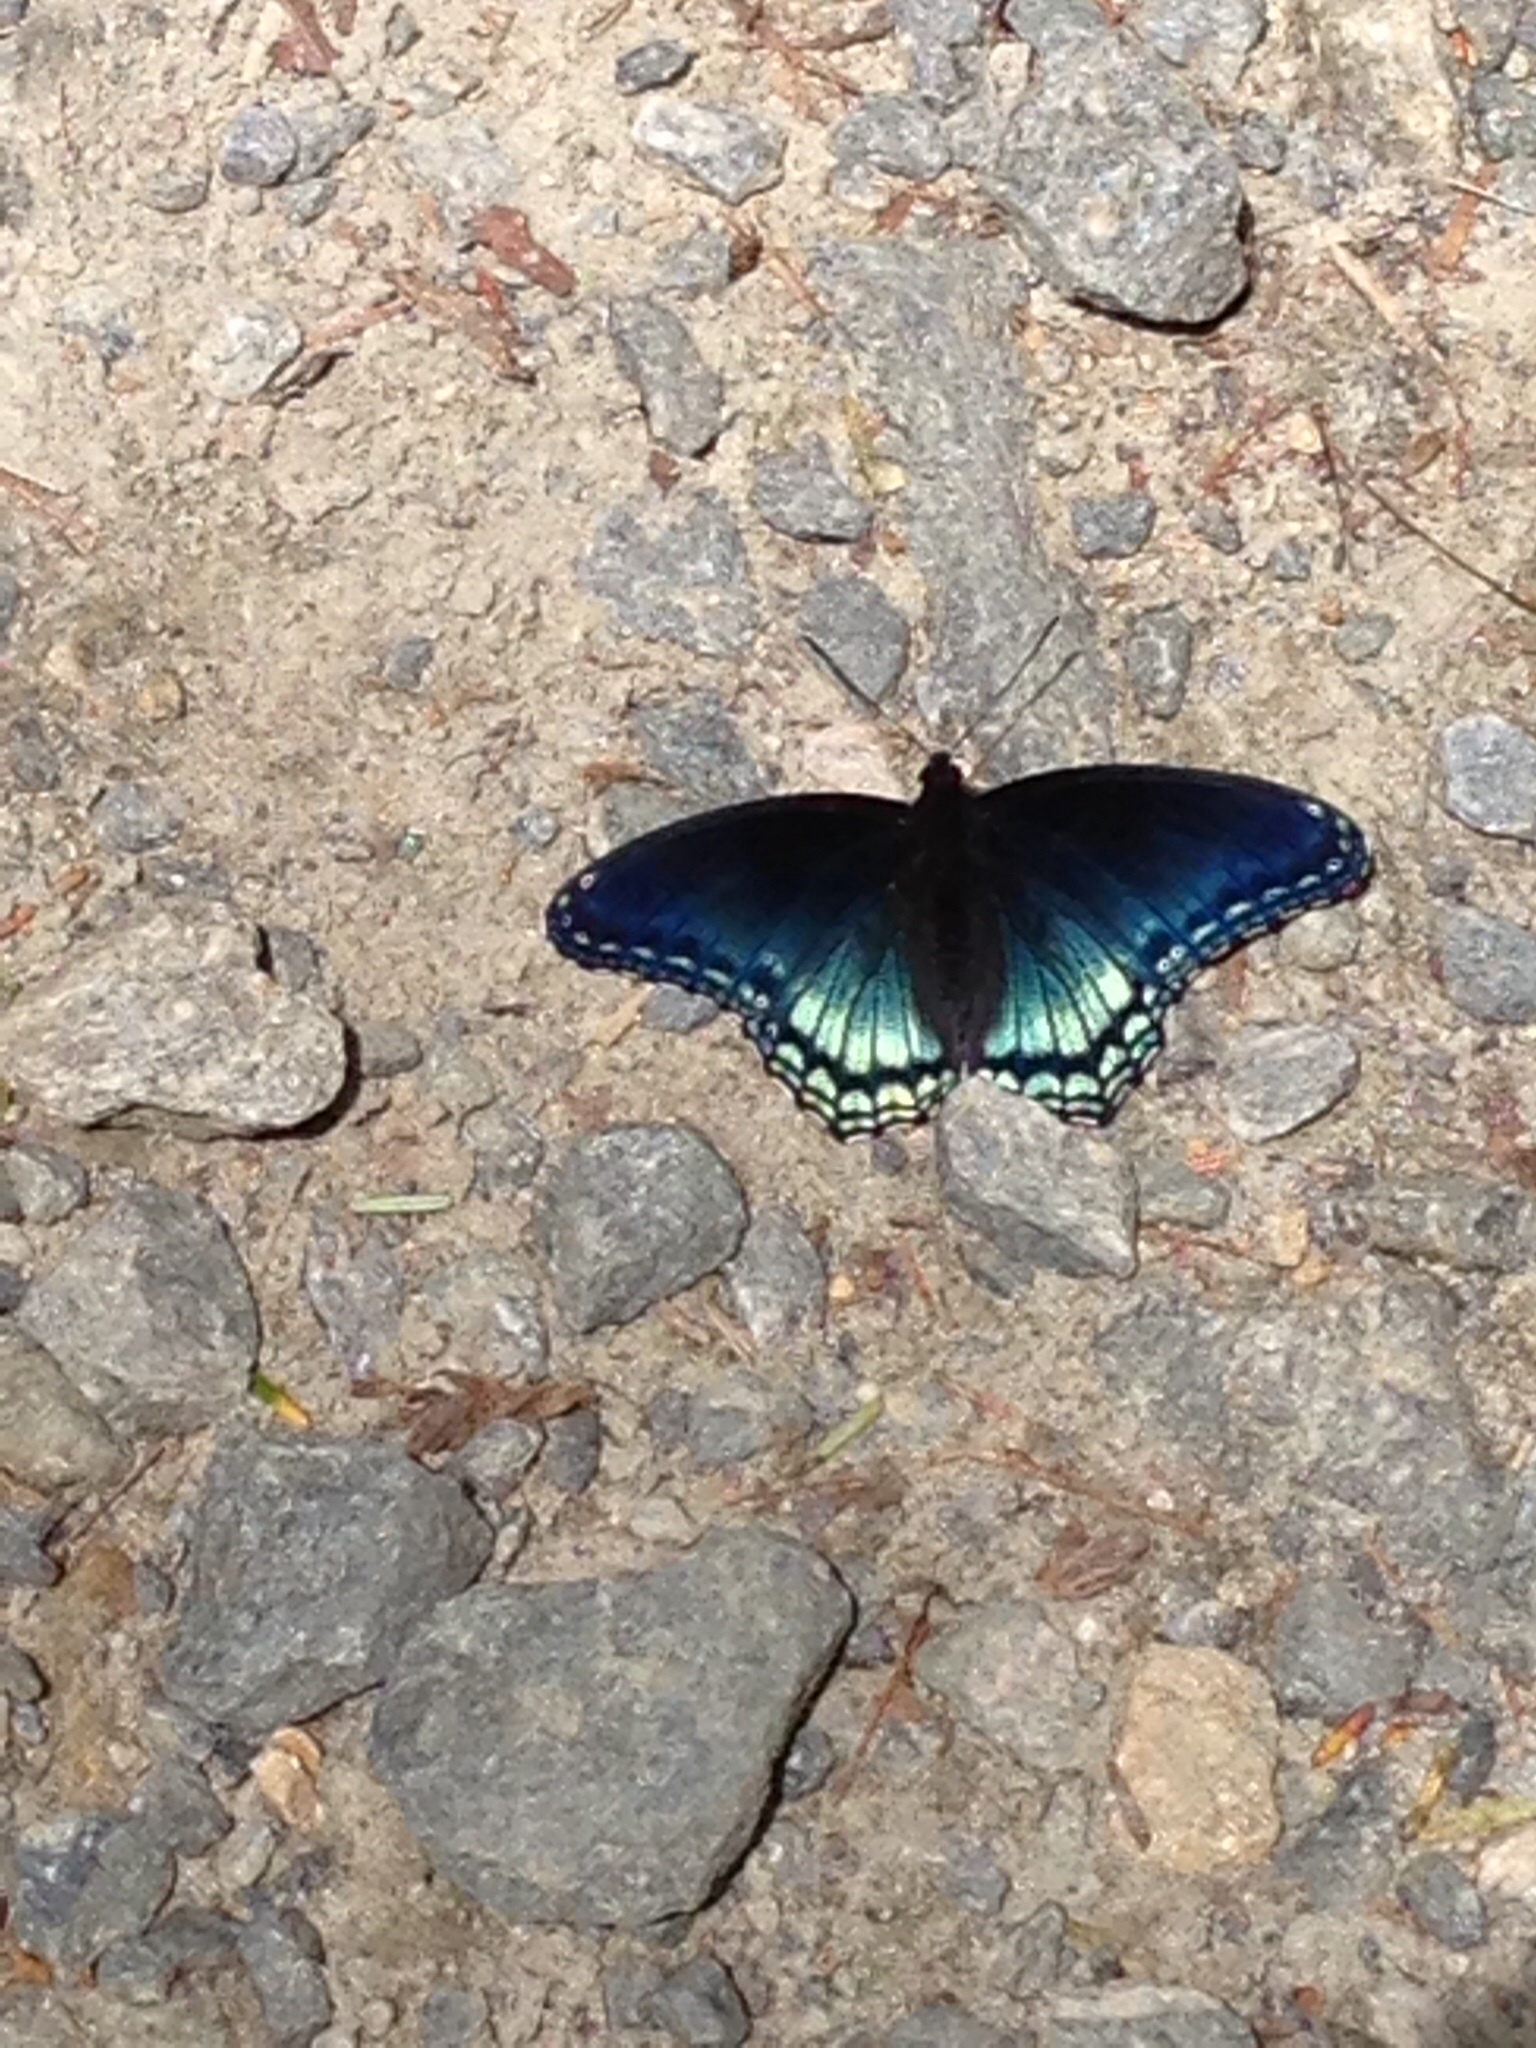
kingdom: Animalia
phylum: Arthropoda
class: Insecta
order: Lepidoptera
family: Nymphalidae
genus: Limenitis
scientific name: Limenitis astyanax
